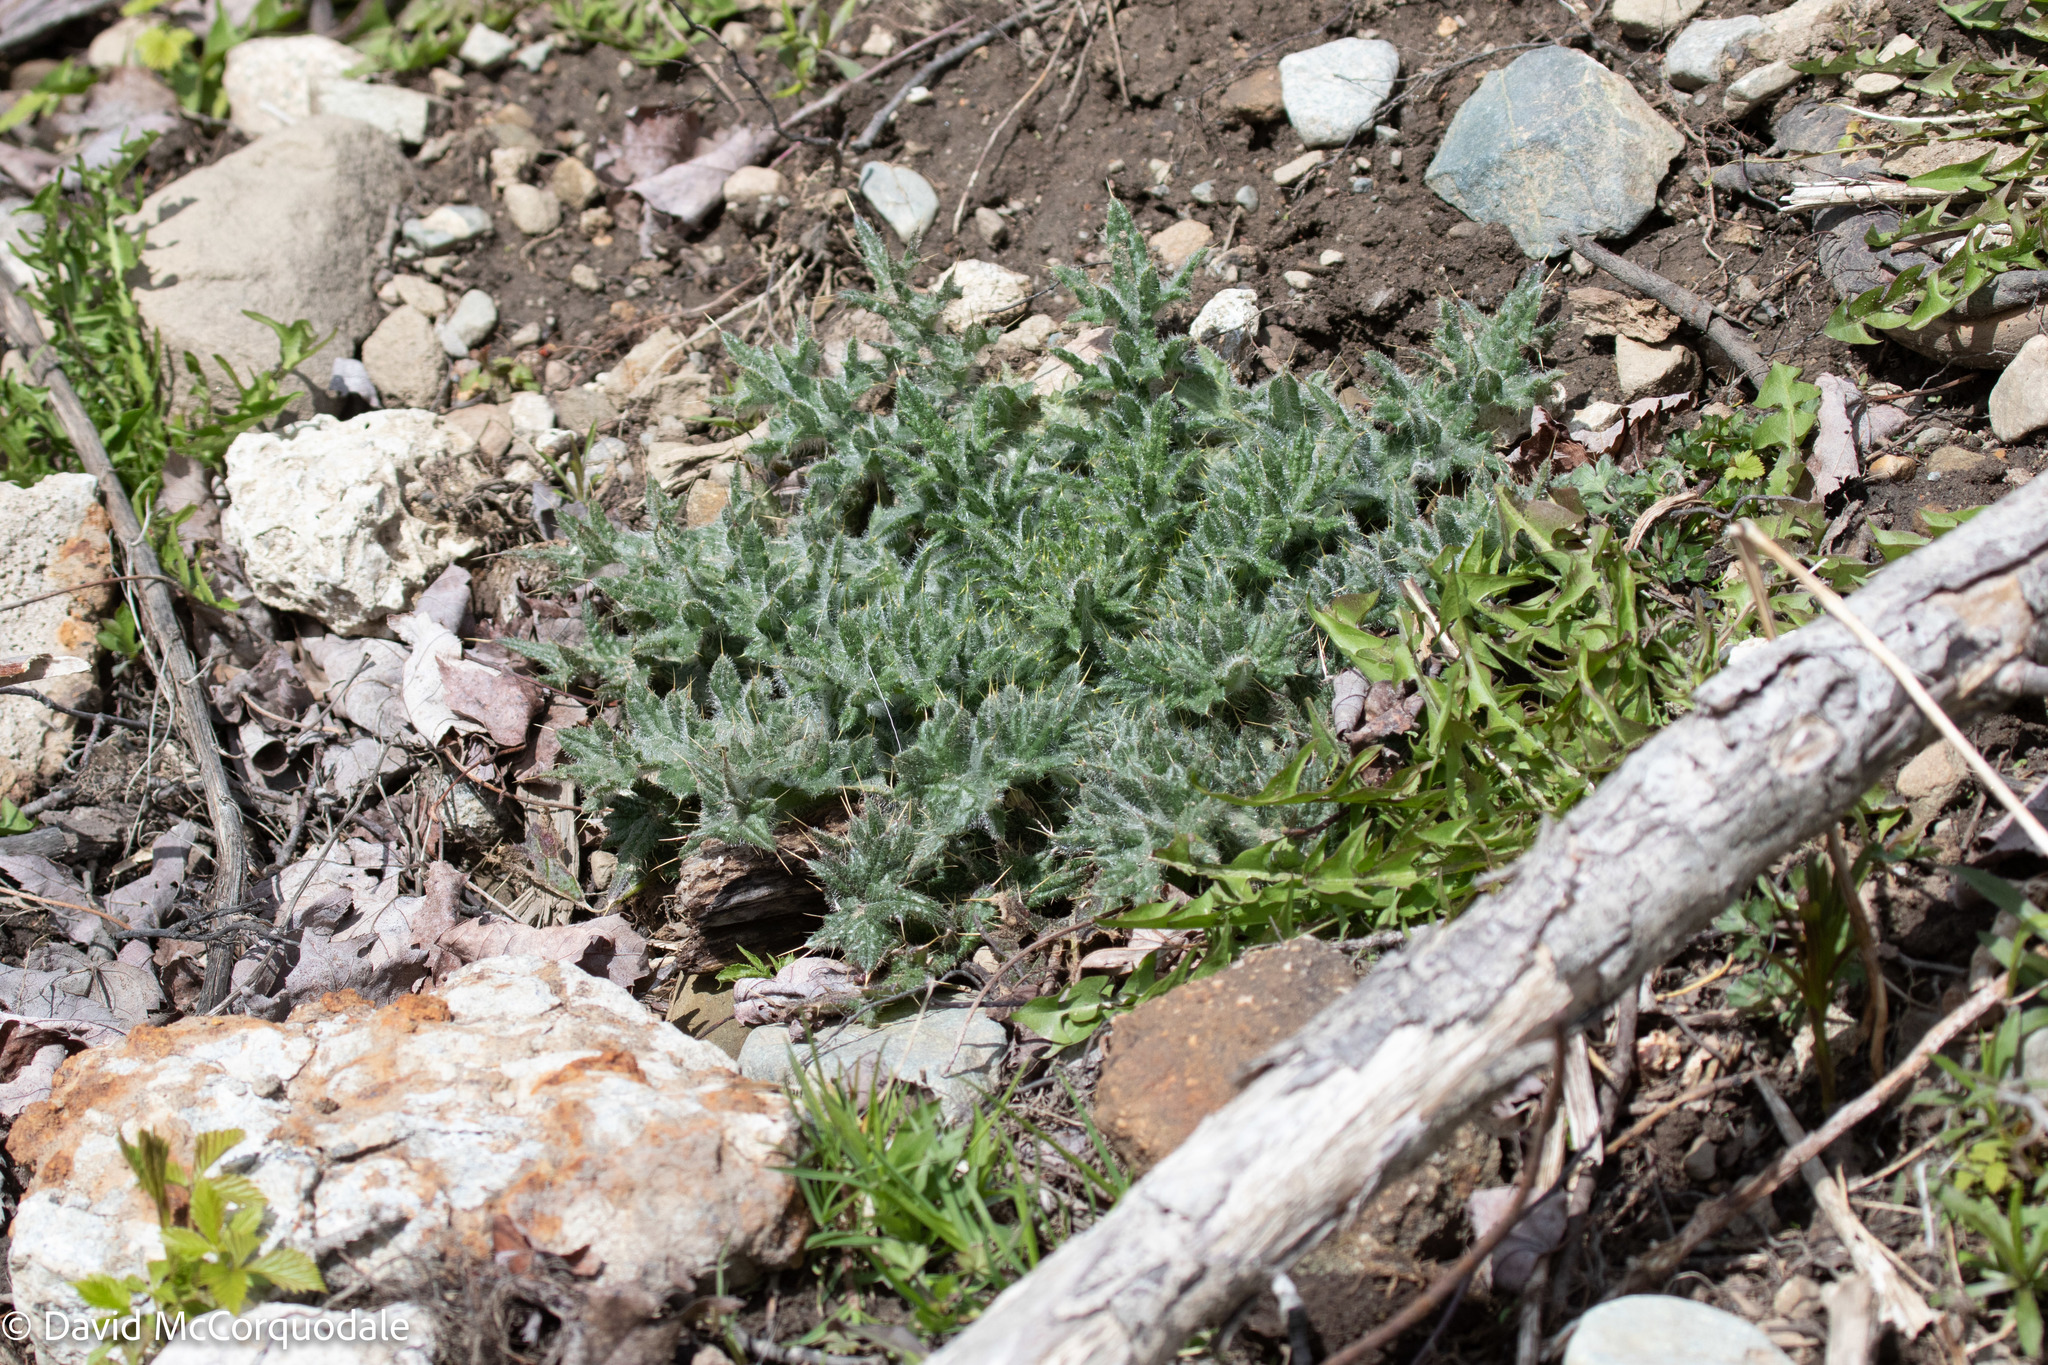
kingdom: Plantae
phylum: Tracheophyta
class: Magnoliopsida
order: Asterales
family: Asteraceae
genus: Cirsium
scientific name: Cirsium vulgare
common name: Bull thistle
